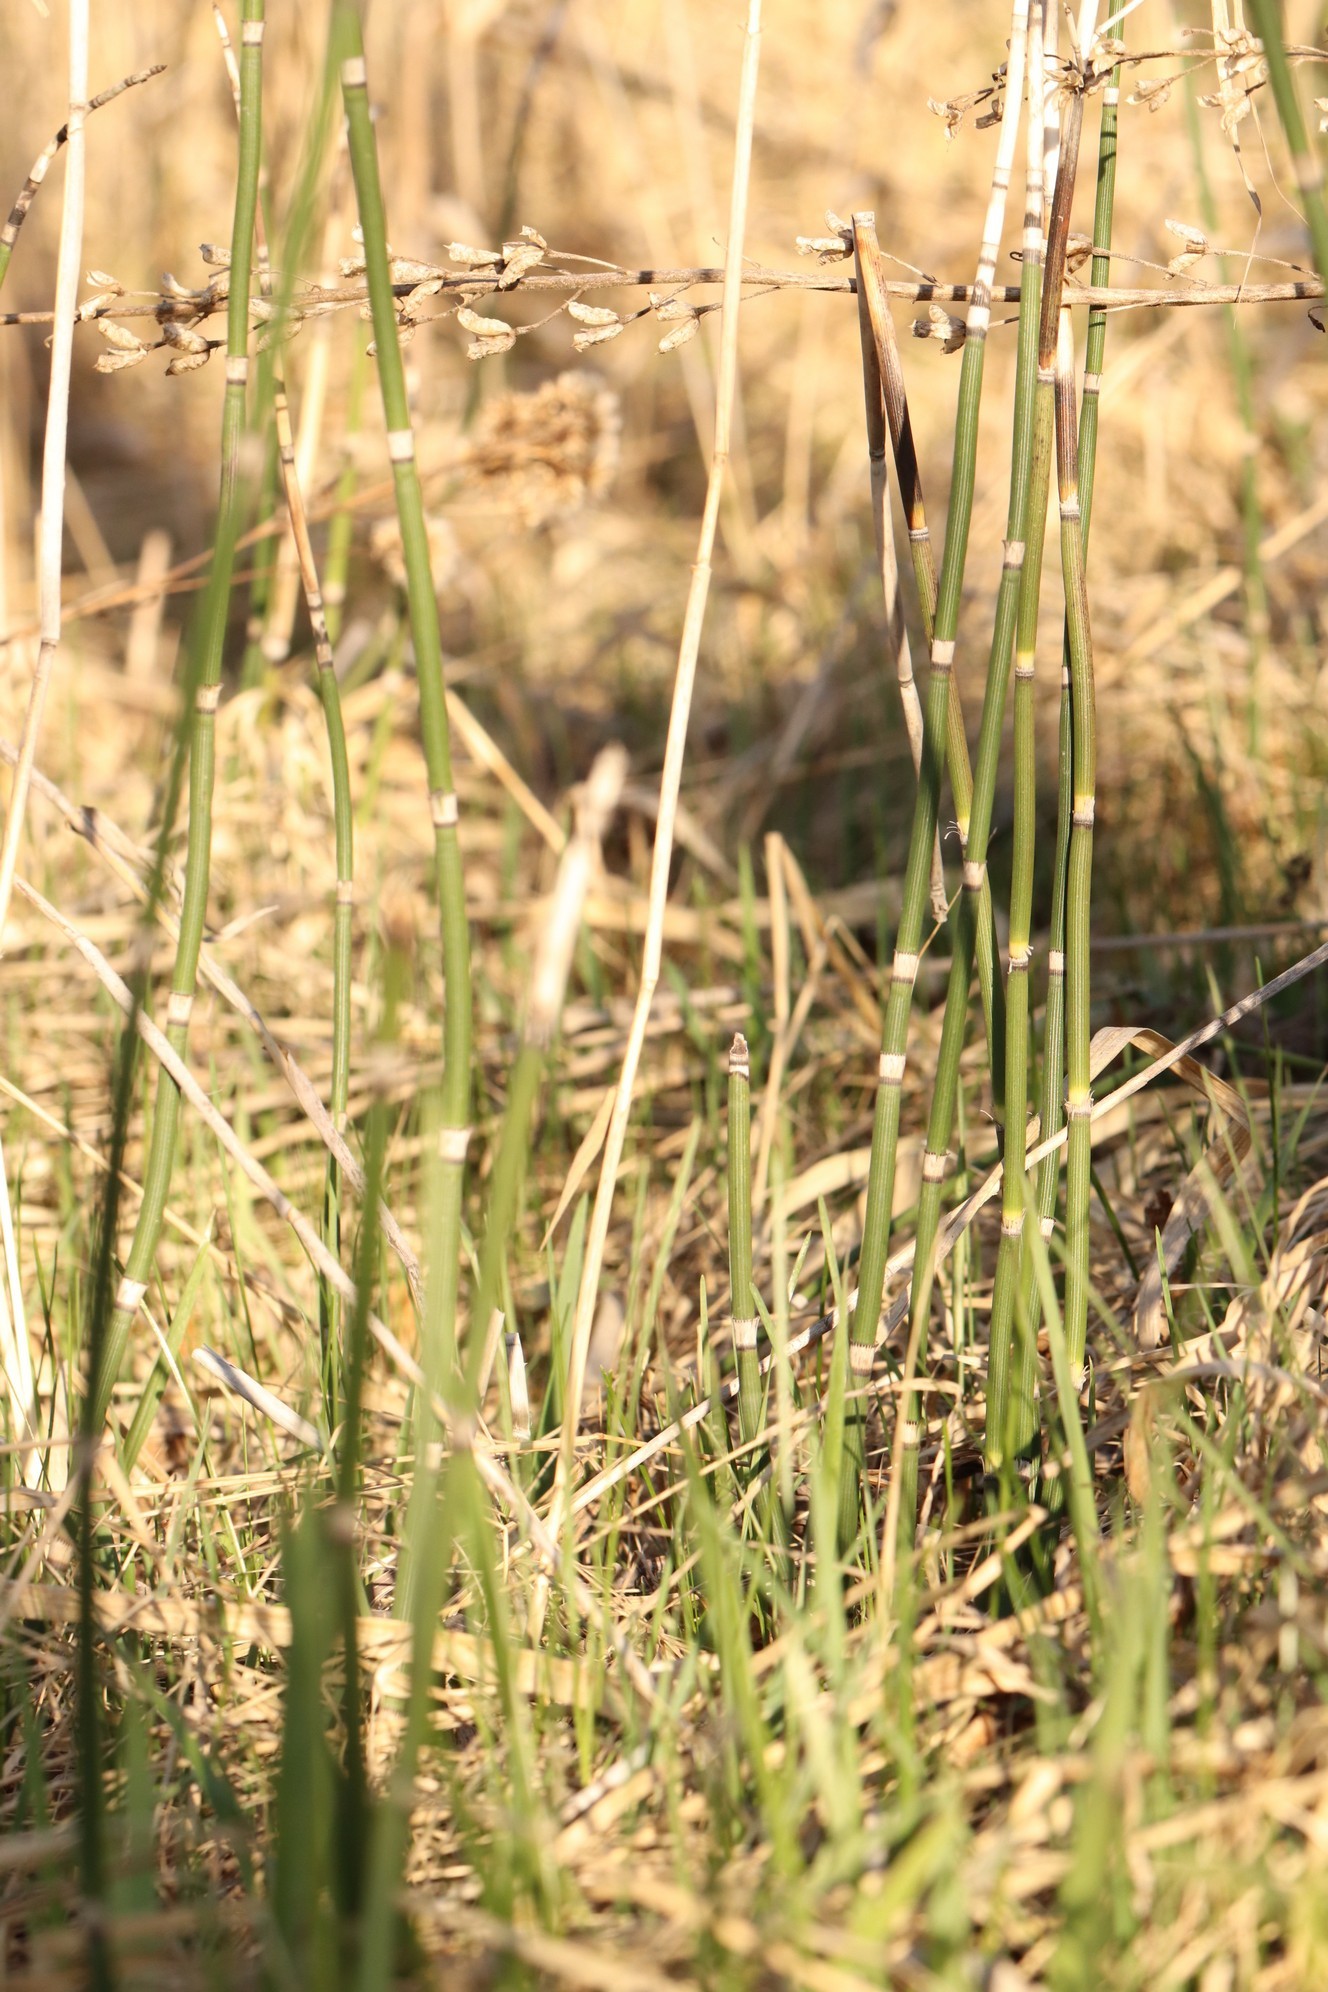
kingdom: Plantae
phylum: Tracheophyta
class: Polypodiopsida
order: Equisetales
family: Equisetaceae
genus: Equisetum
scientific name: Equisetum hyemale
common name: Rough horsetail
